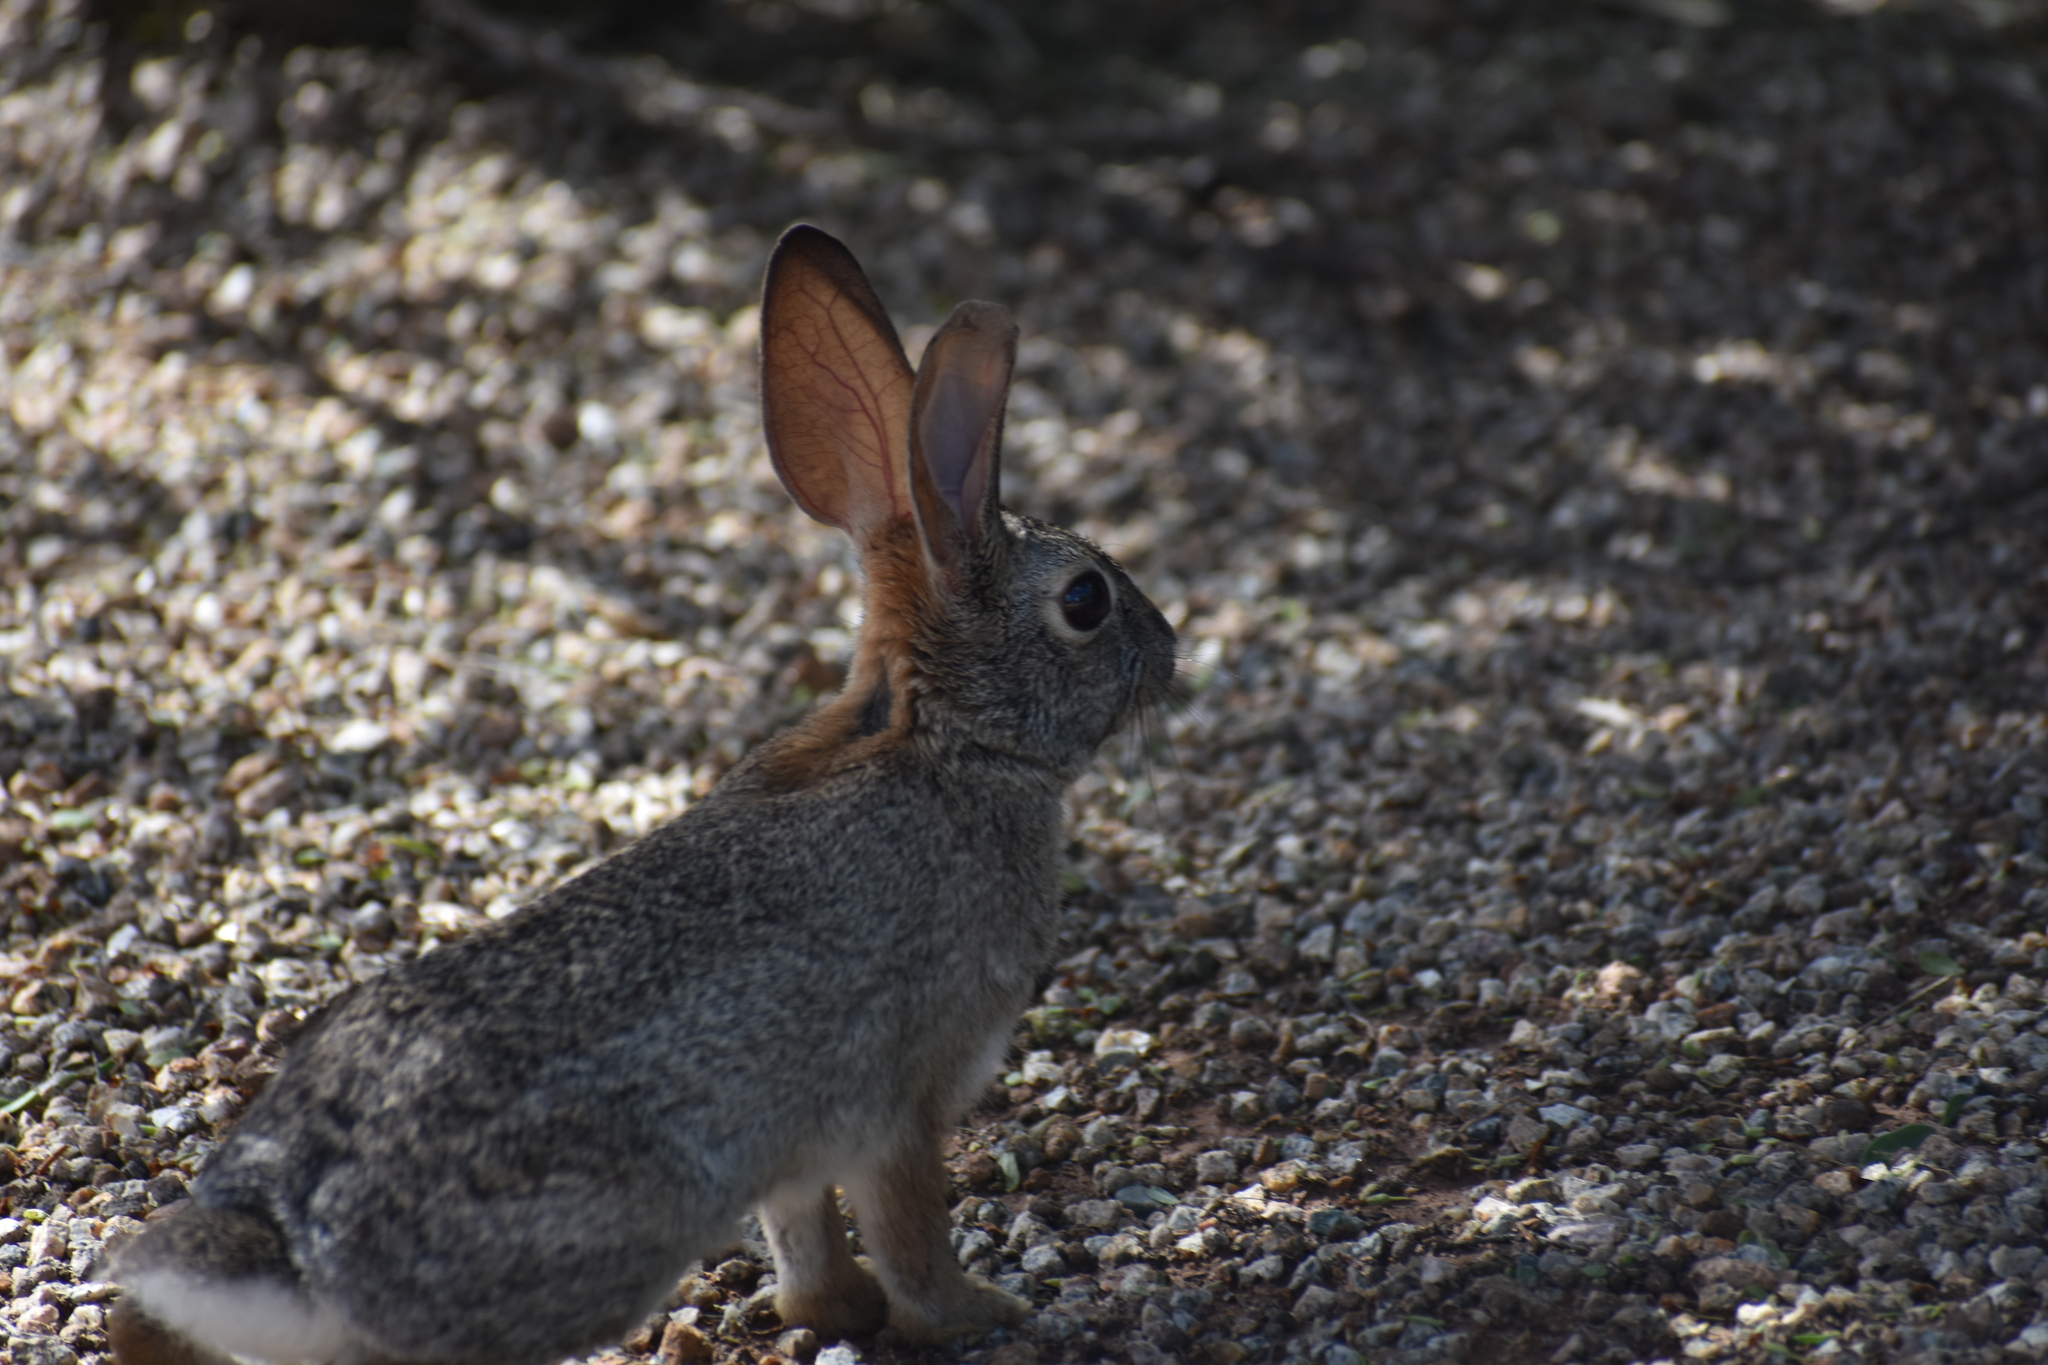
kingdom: Animalia
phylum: Chordata
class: Mammalia
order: Lagomorpha
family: Leporidae
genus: Sylvilagus
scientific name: Sylvilagus audubonii
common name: Desert cottontail
